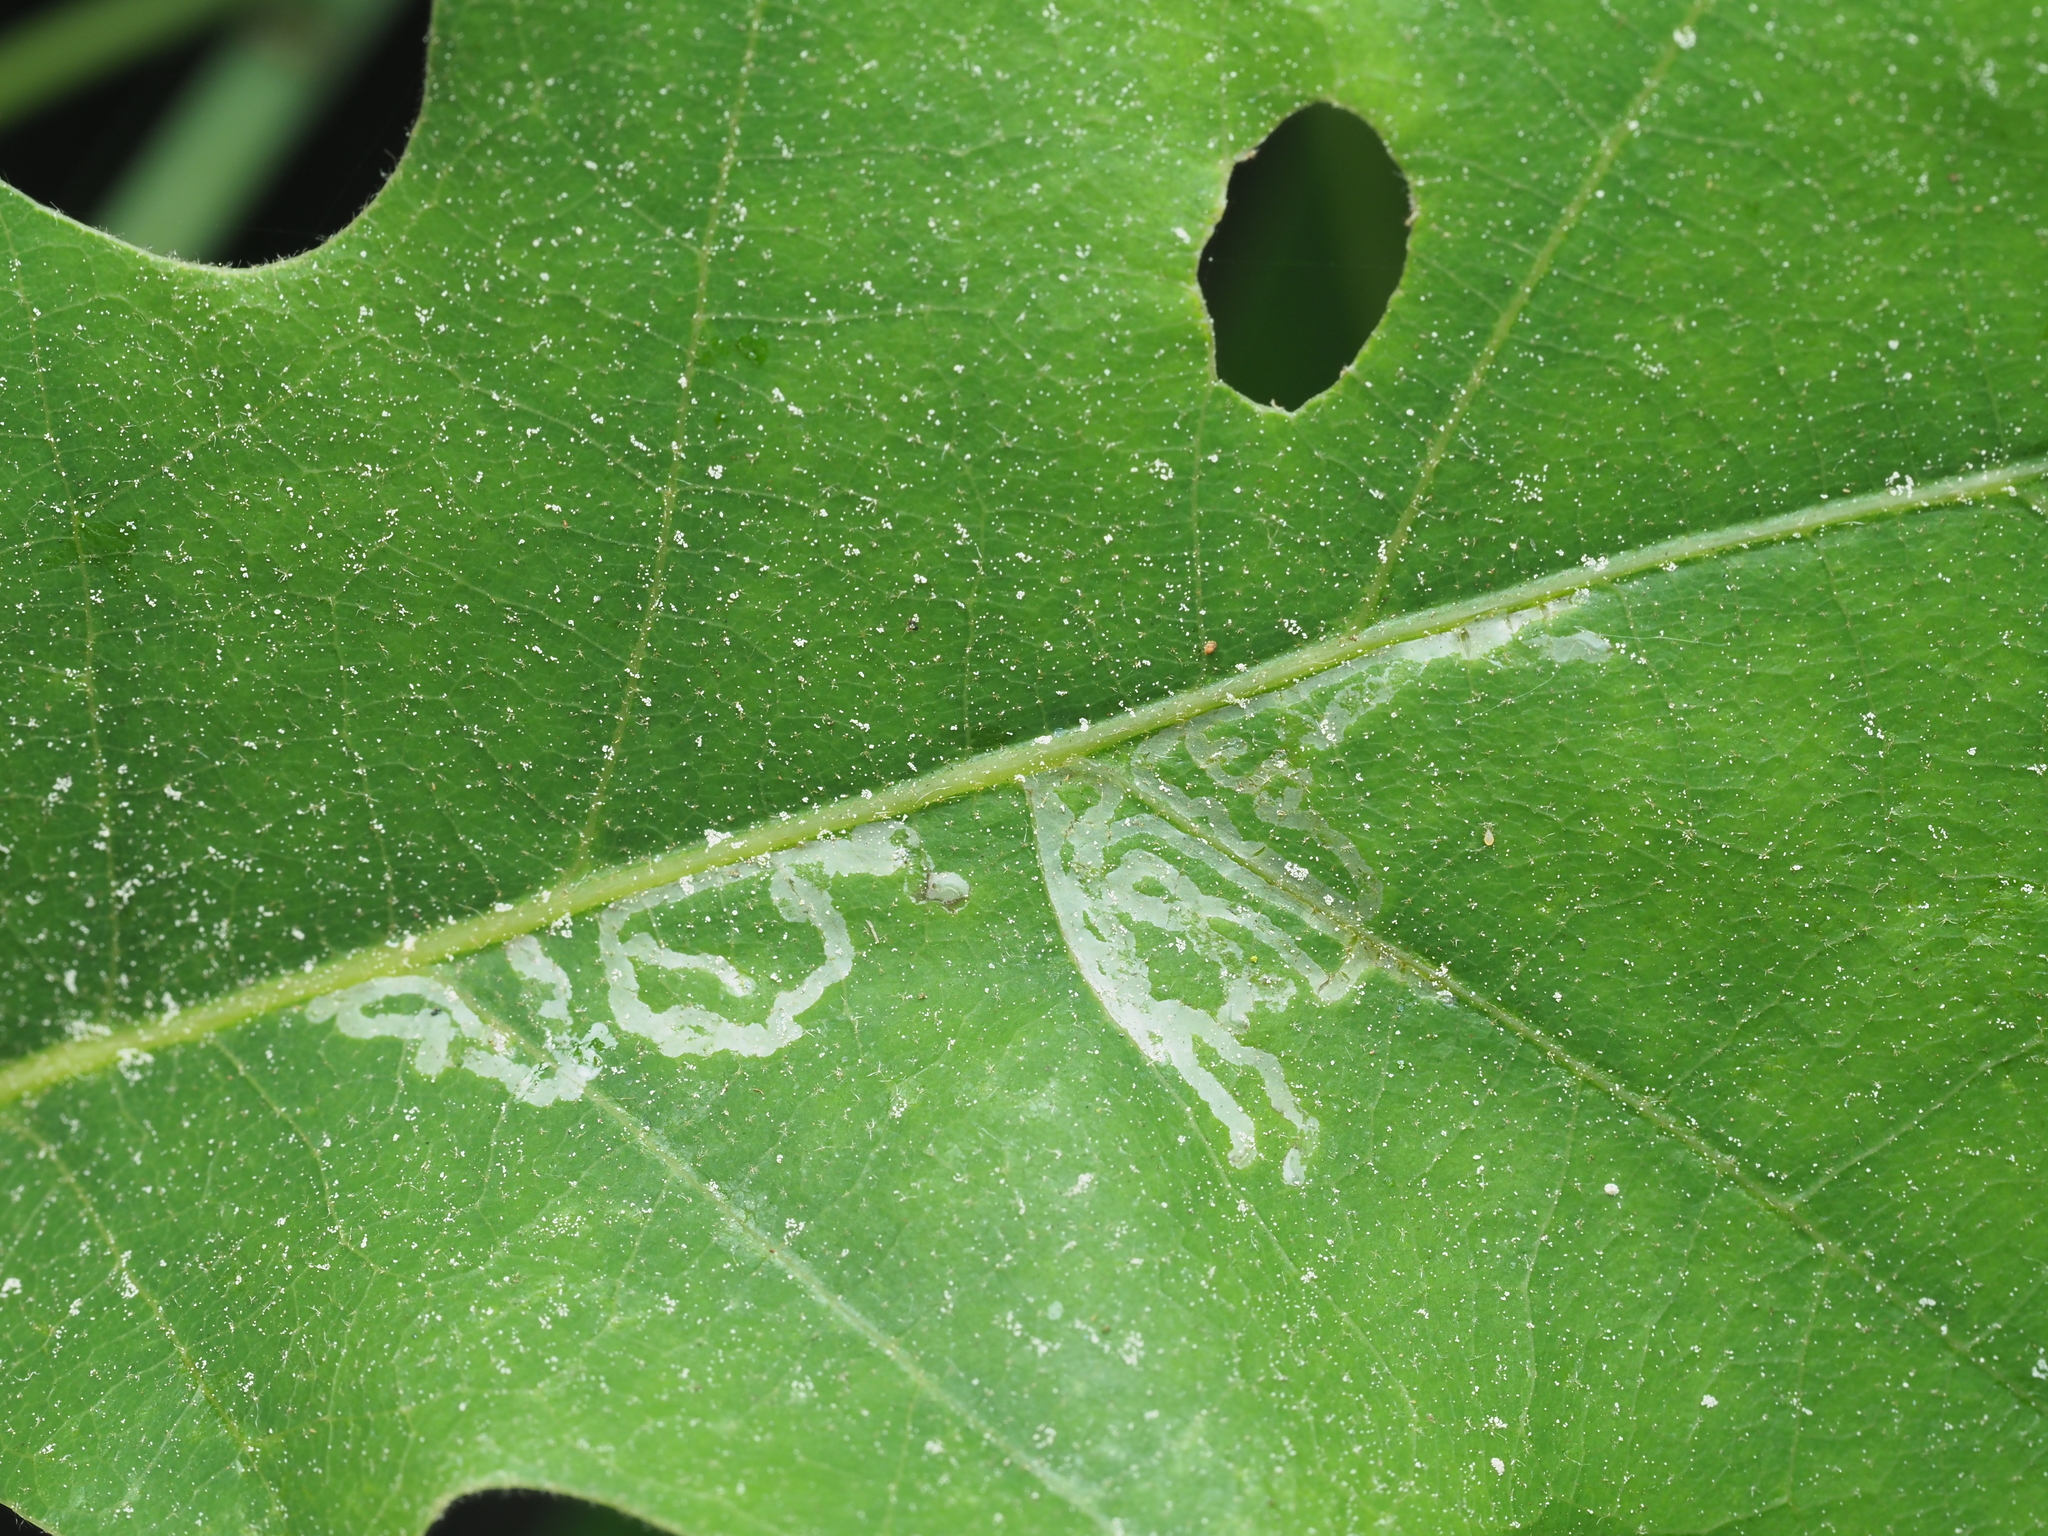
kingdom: Animalia
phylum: Arthropoda
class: Insecta
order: Lepidoptera
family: Gracillariidae
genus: Acrocercops
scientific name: Acrocercops brongniardella
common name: Brown oak slender
